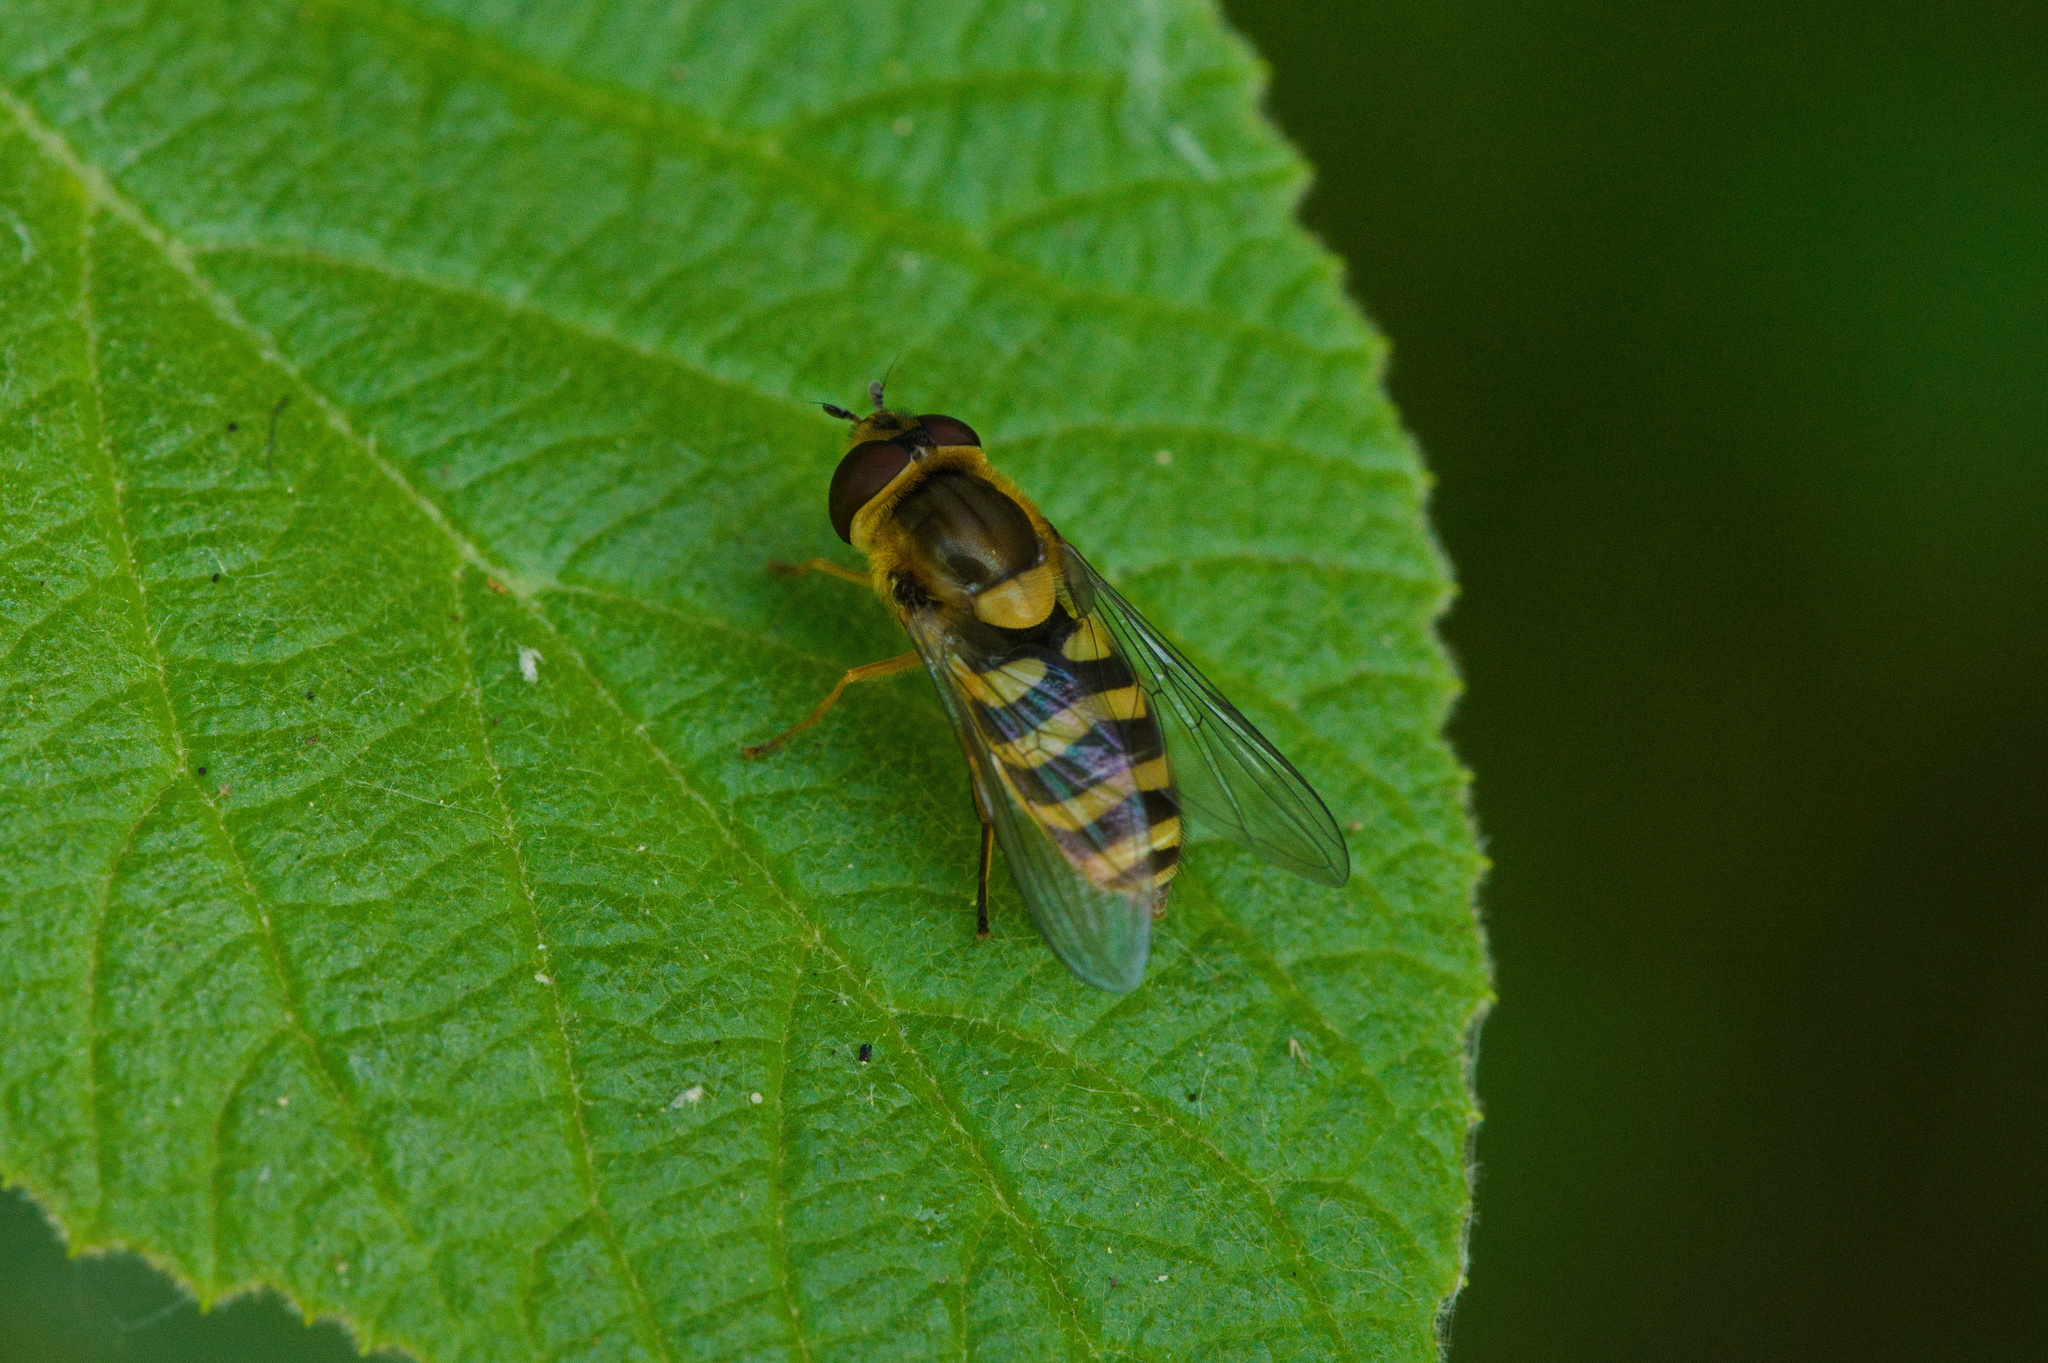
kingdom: Animalia
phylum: Arthropoda
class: Insecta
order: Diptera
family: Syrphidae
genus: Syrphus
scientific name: Syrphus
